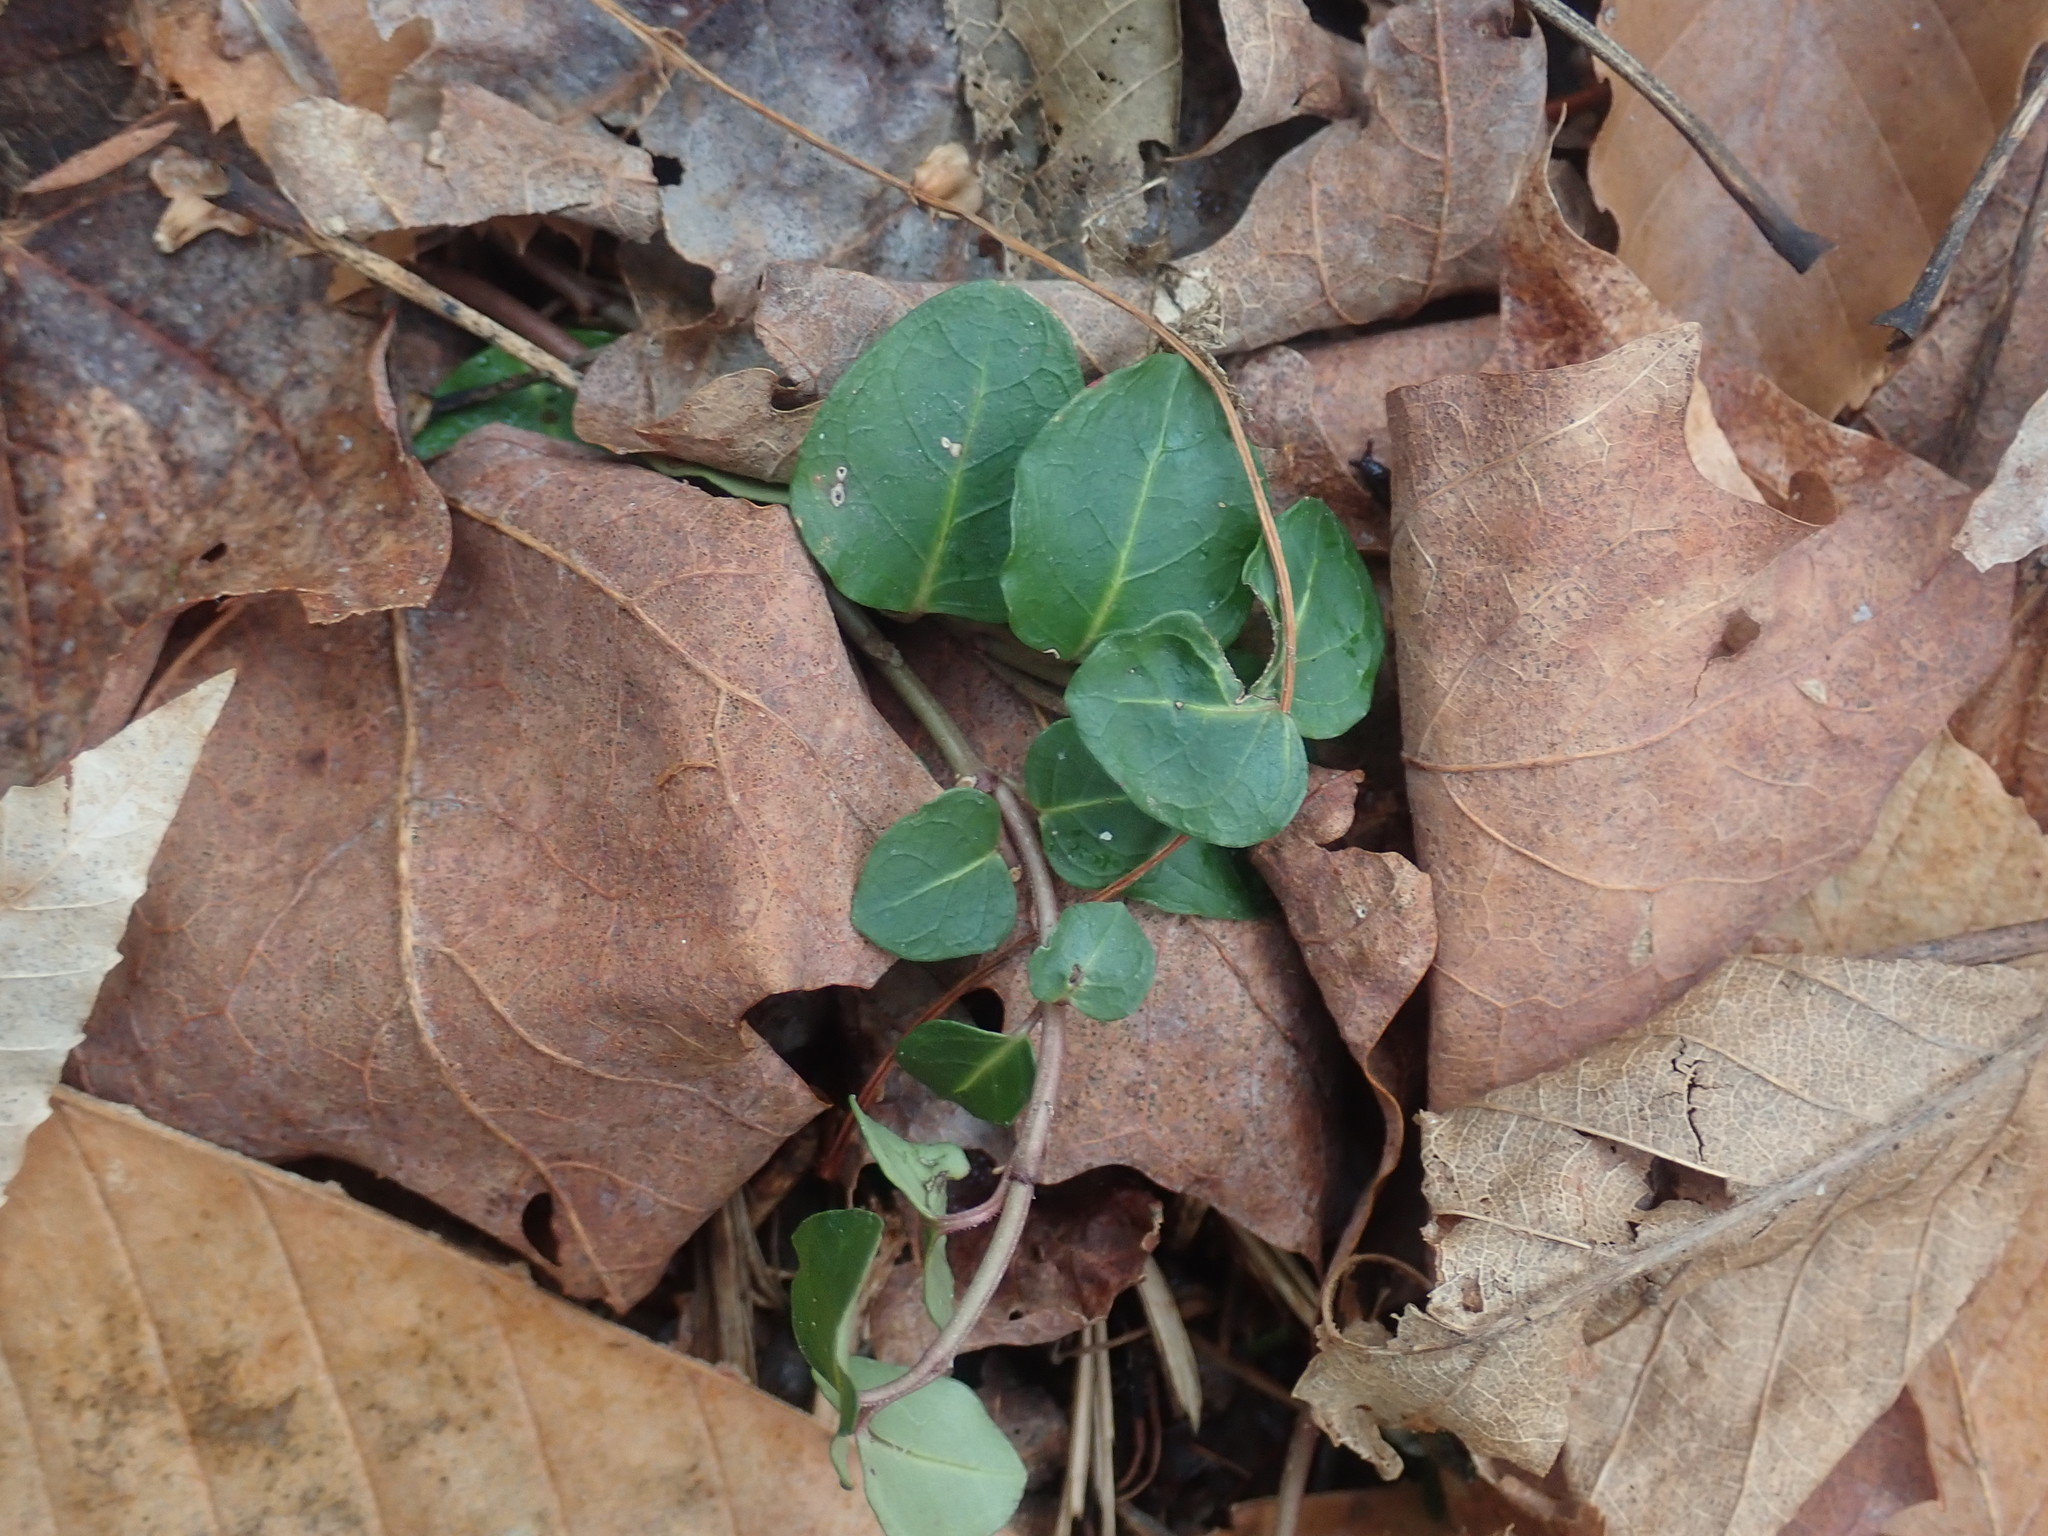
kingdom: Plantae
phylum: Tracheophyta
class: Magnoliopsida
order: Gentianales
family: Rubiaceae
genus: Mitchella
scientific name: Mitchella repens
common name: Partridge-berry
